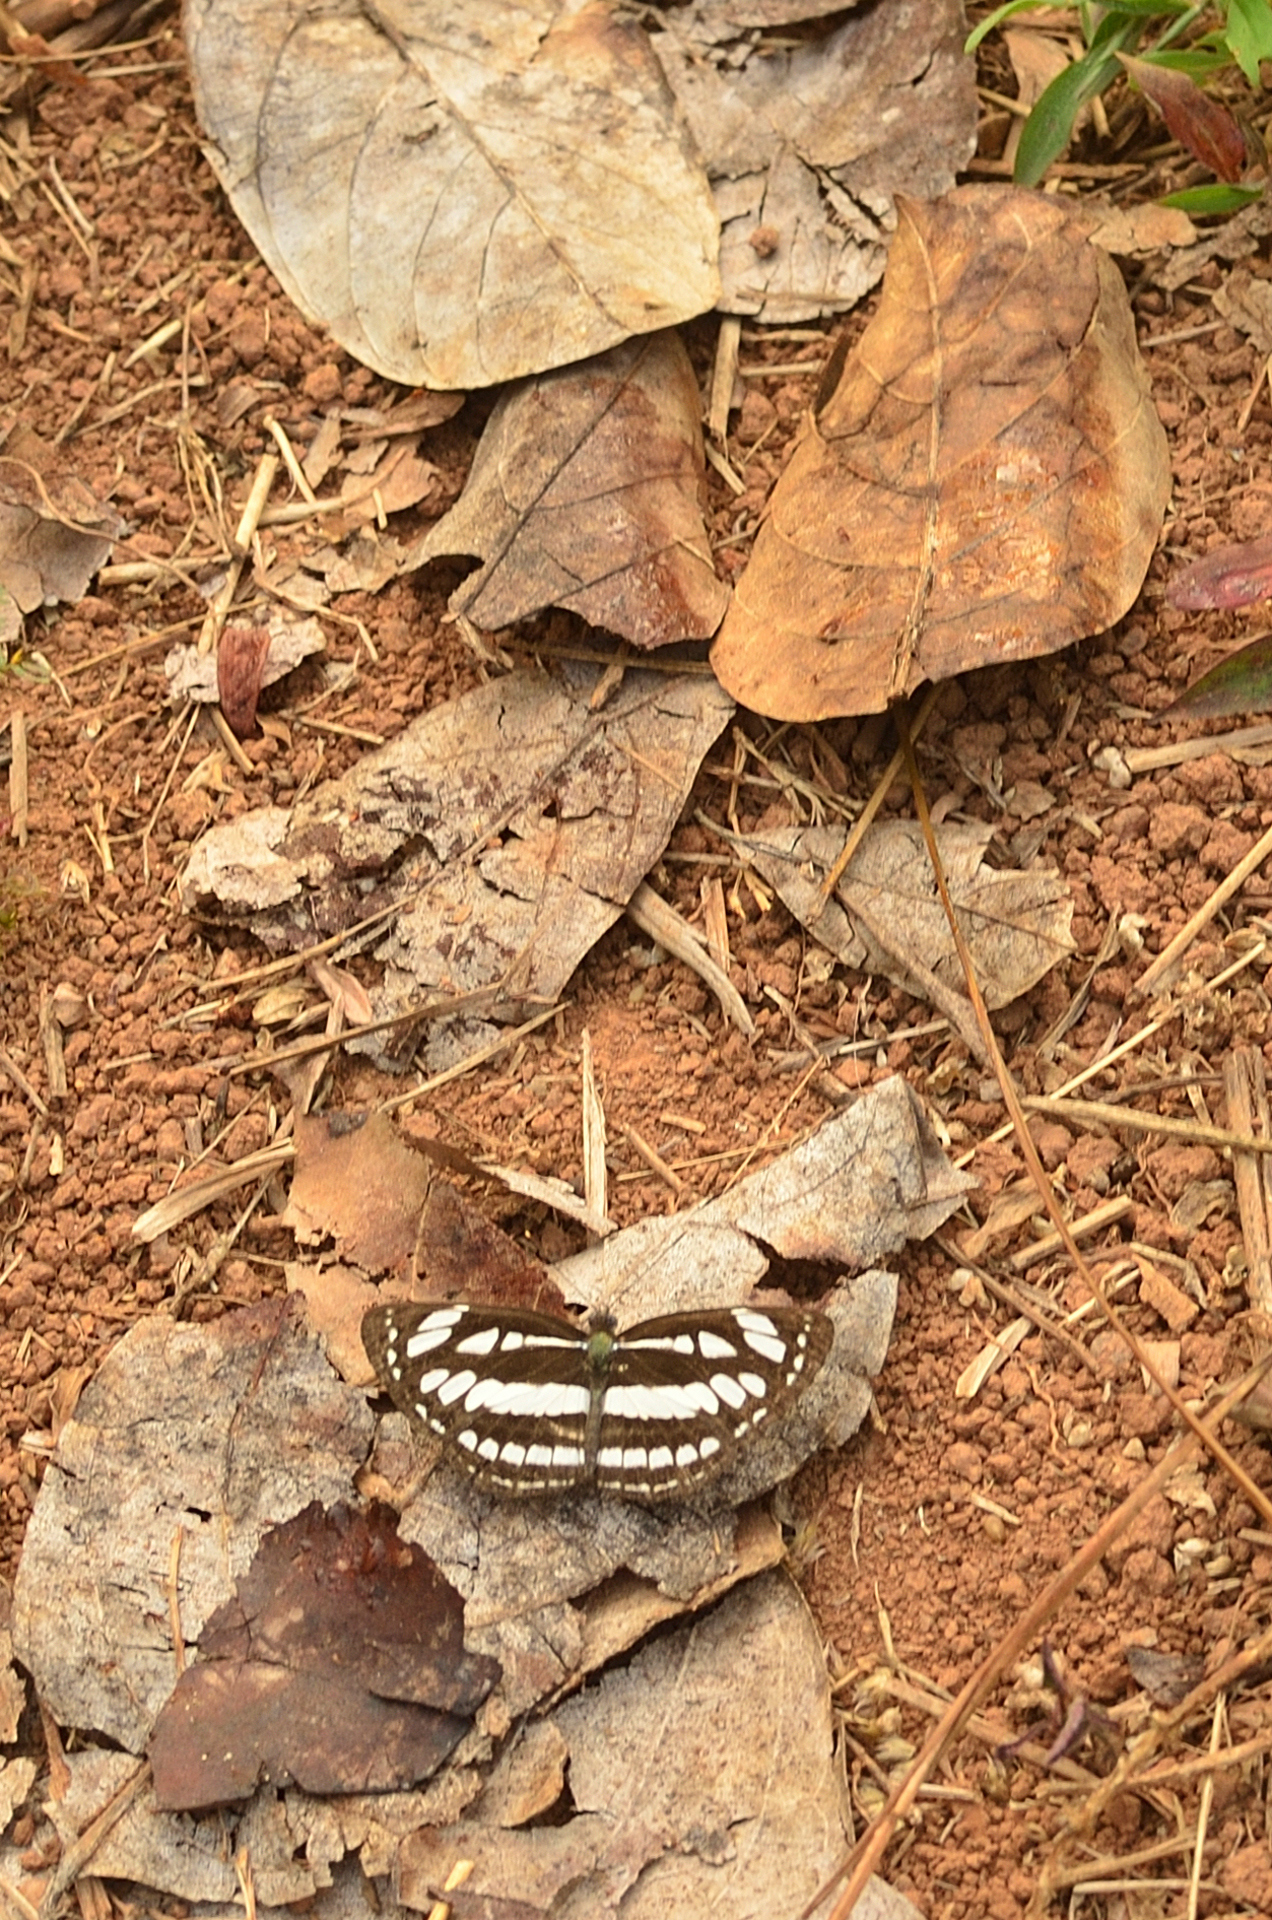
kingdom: Animalia
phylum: Arthropoda
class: Insecta
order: Lepidoptera
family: Nymphalidae
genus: Neptis
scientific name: Neptis hylas
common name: Common sailer
